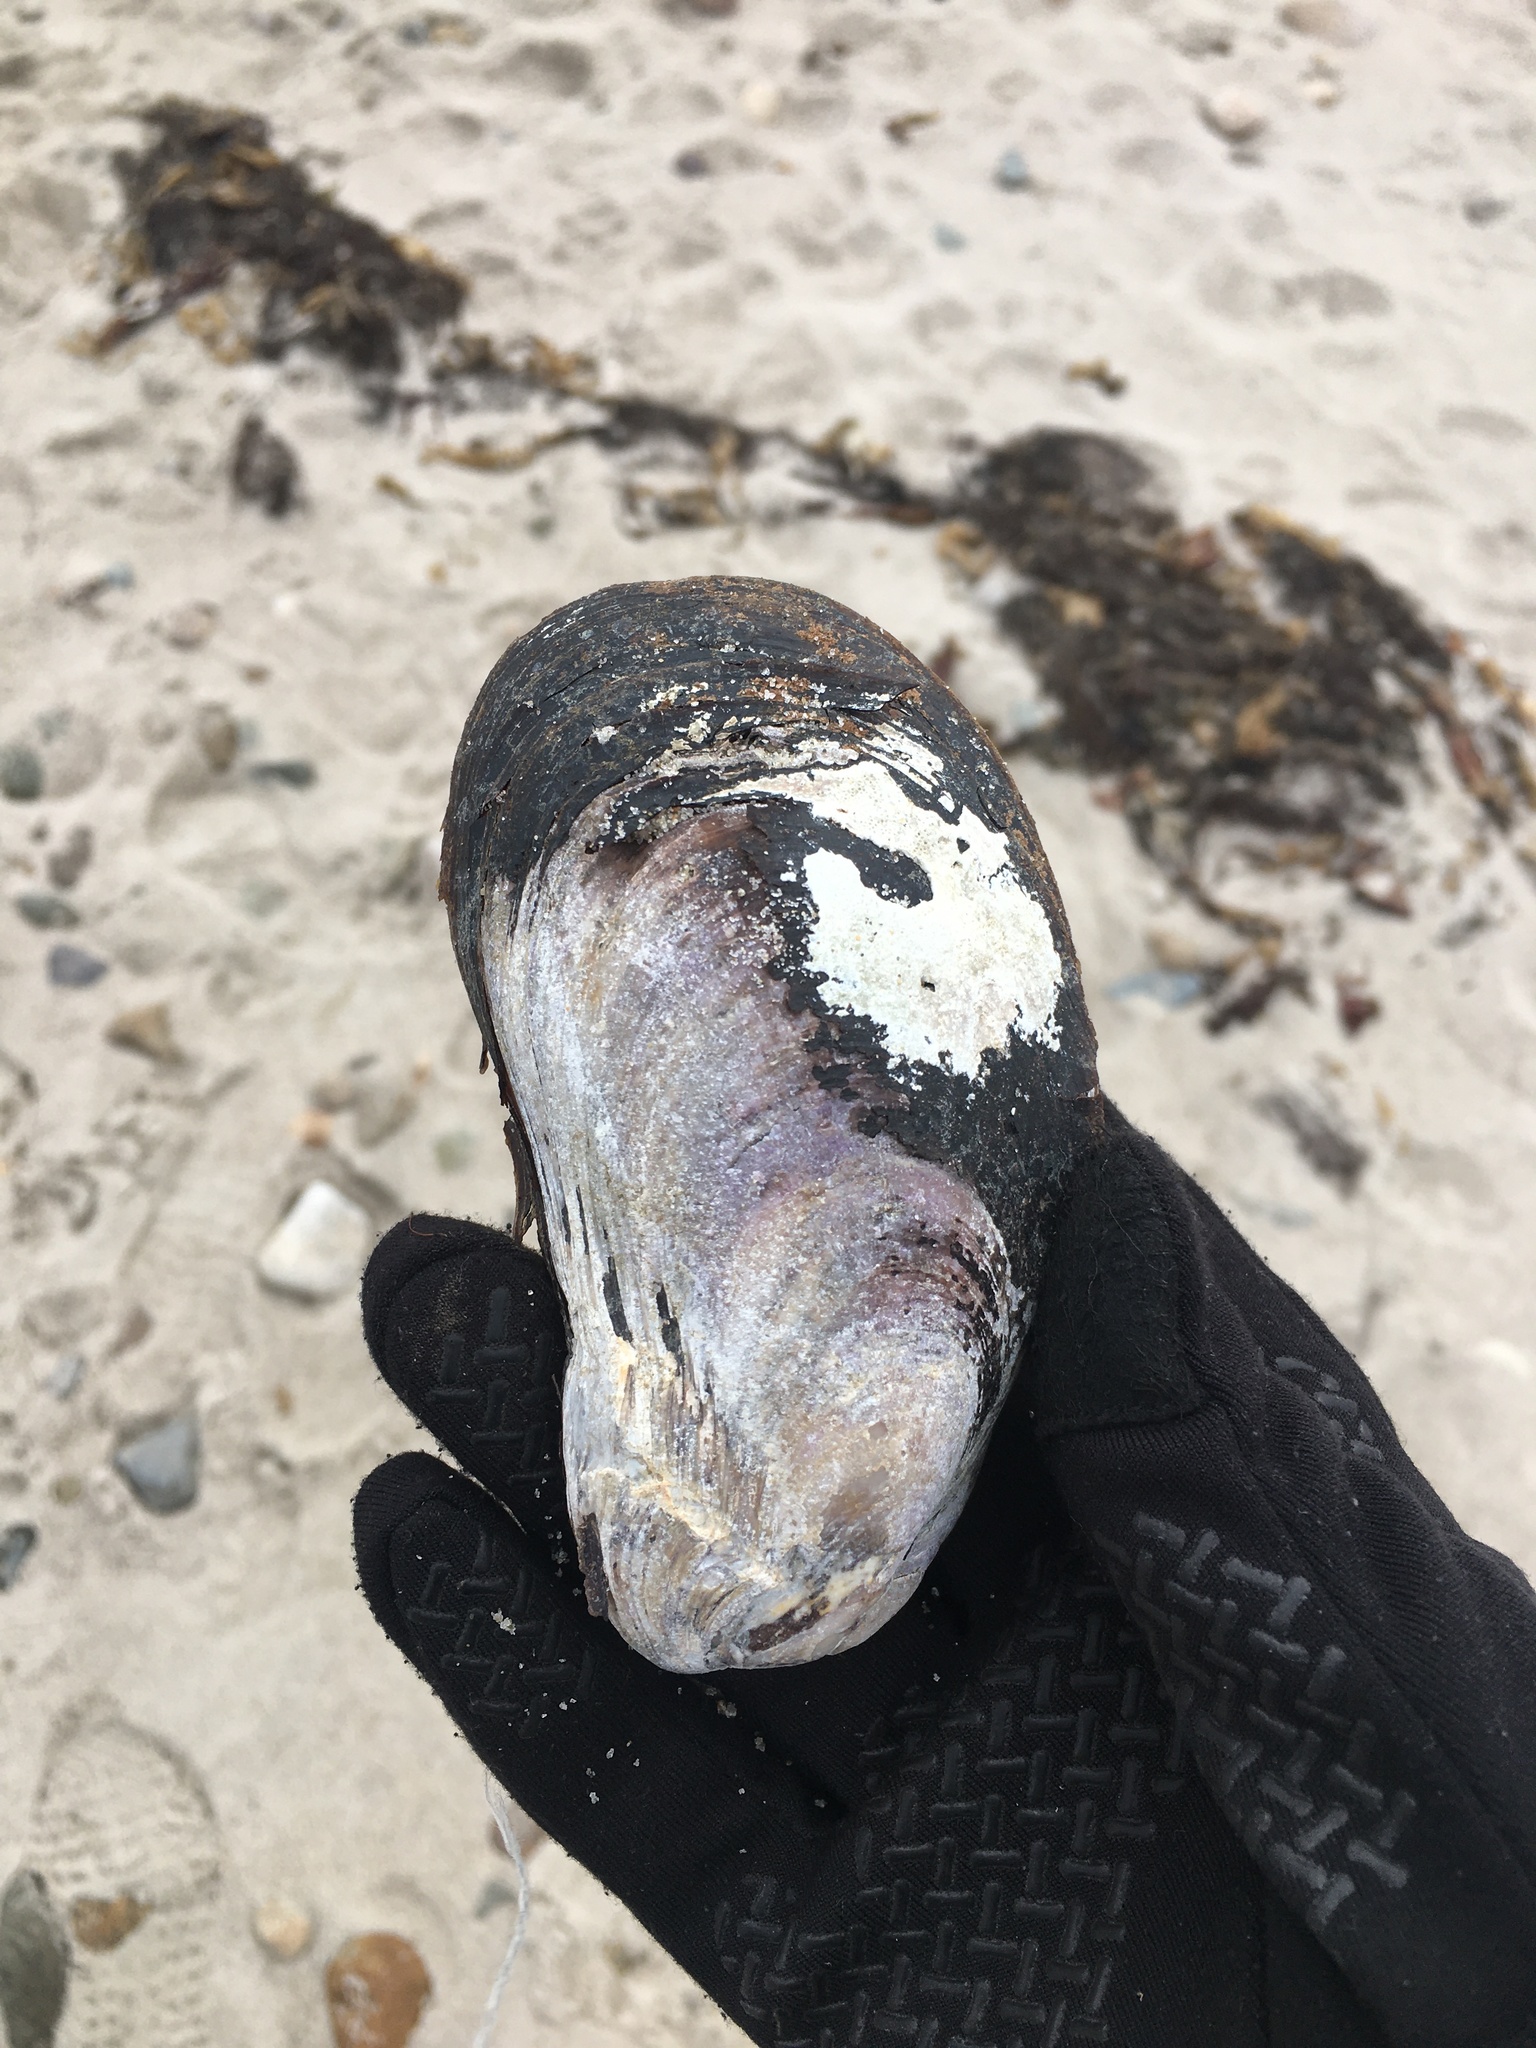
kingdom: Animalia
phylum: Mollusca
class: Bivalvia
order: Mytilida
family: Mytilidae
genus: Modiolus
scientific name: Modiolus modiolus
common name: Horse-mussel
